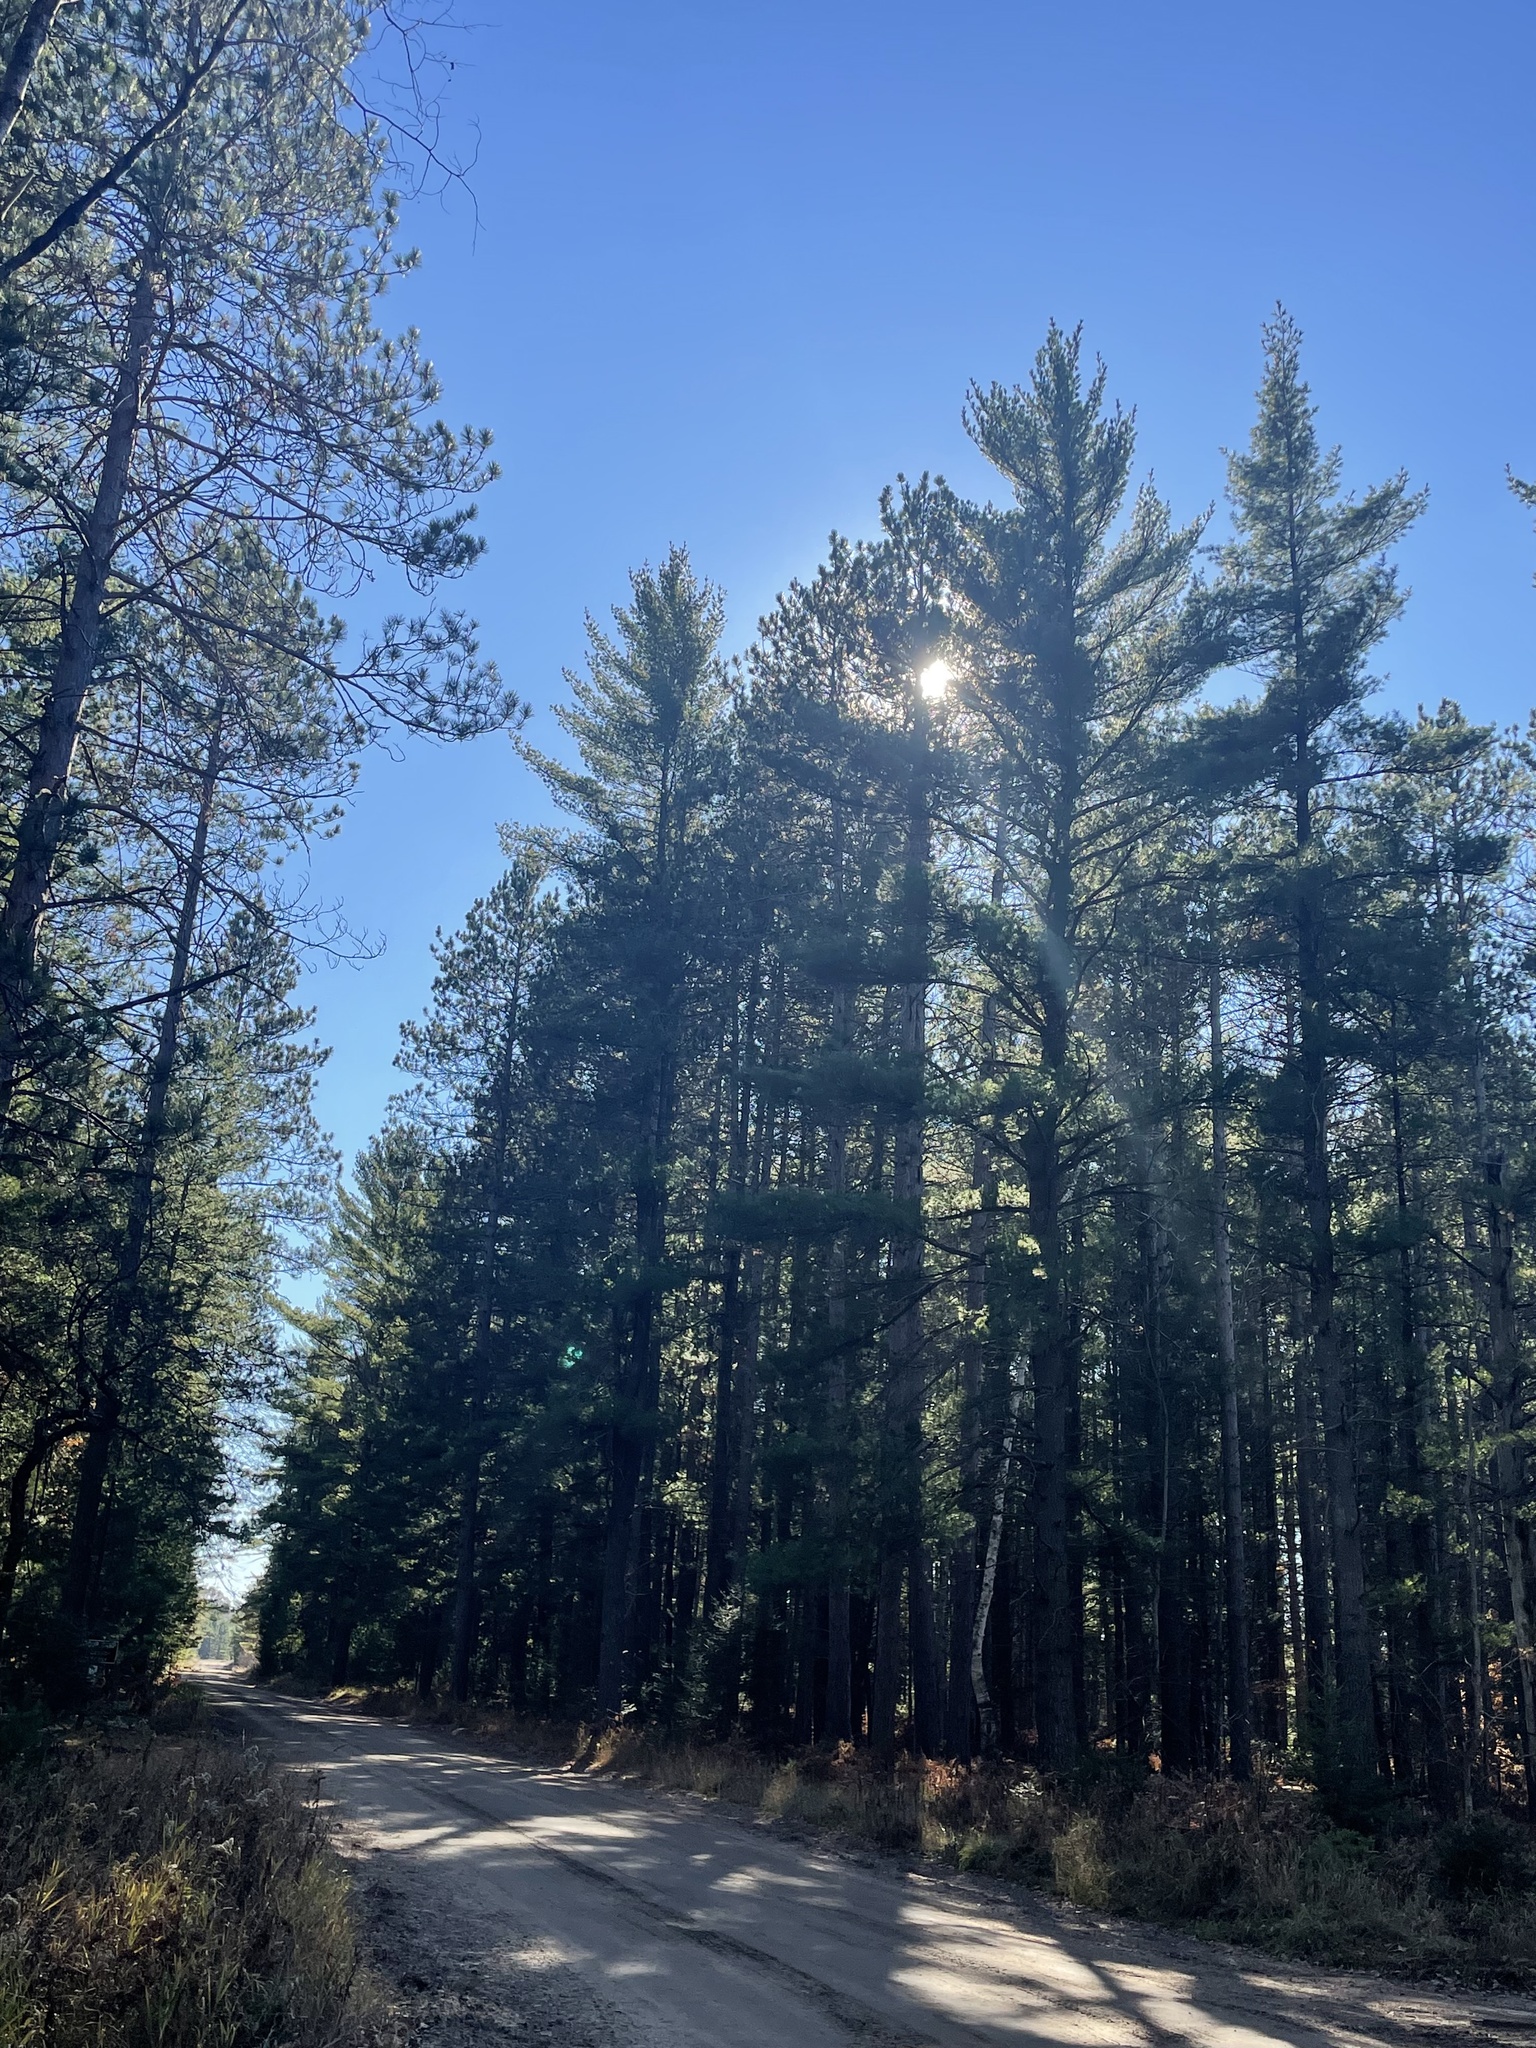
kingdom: Plantae
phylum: Tracheophyta
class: Pinopsida
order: Pinales
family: Pinaceae
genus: Pinus
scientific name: Pinus strobus
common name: Weymouth pine
